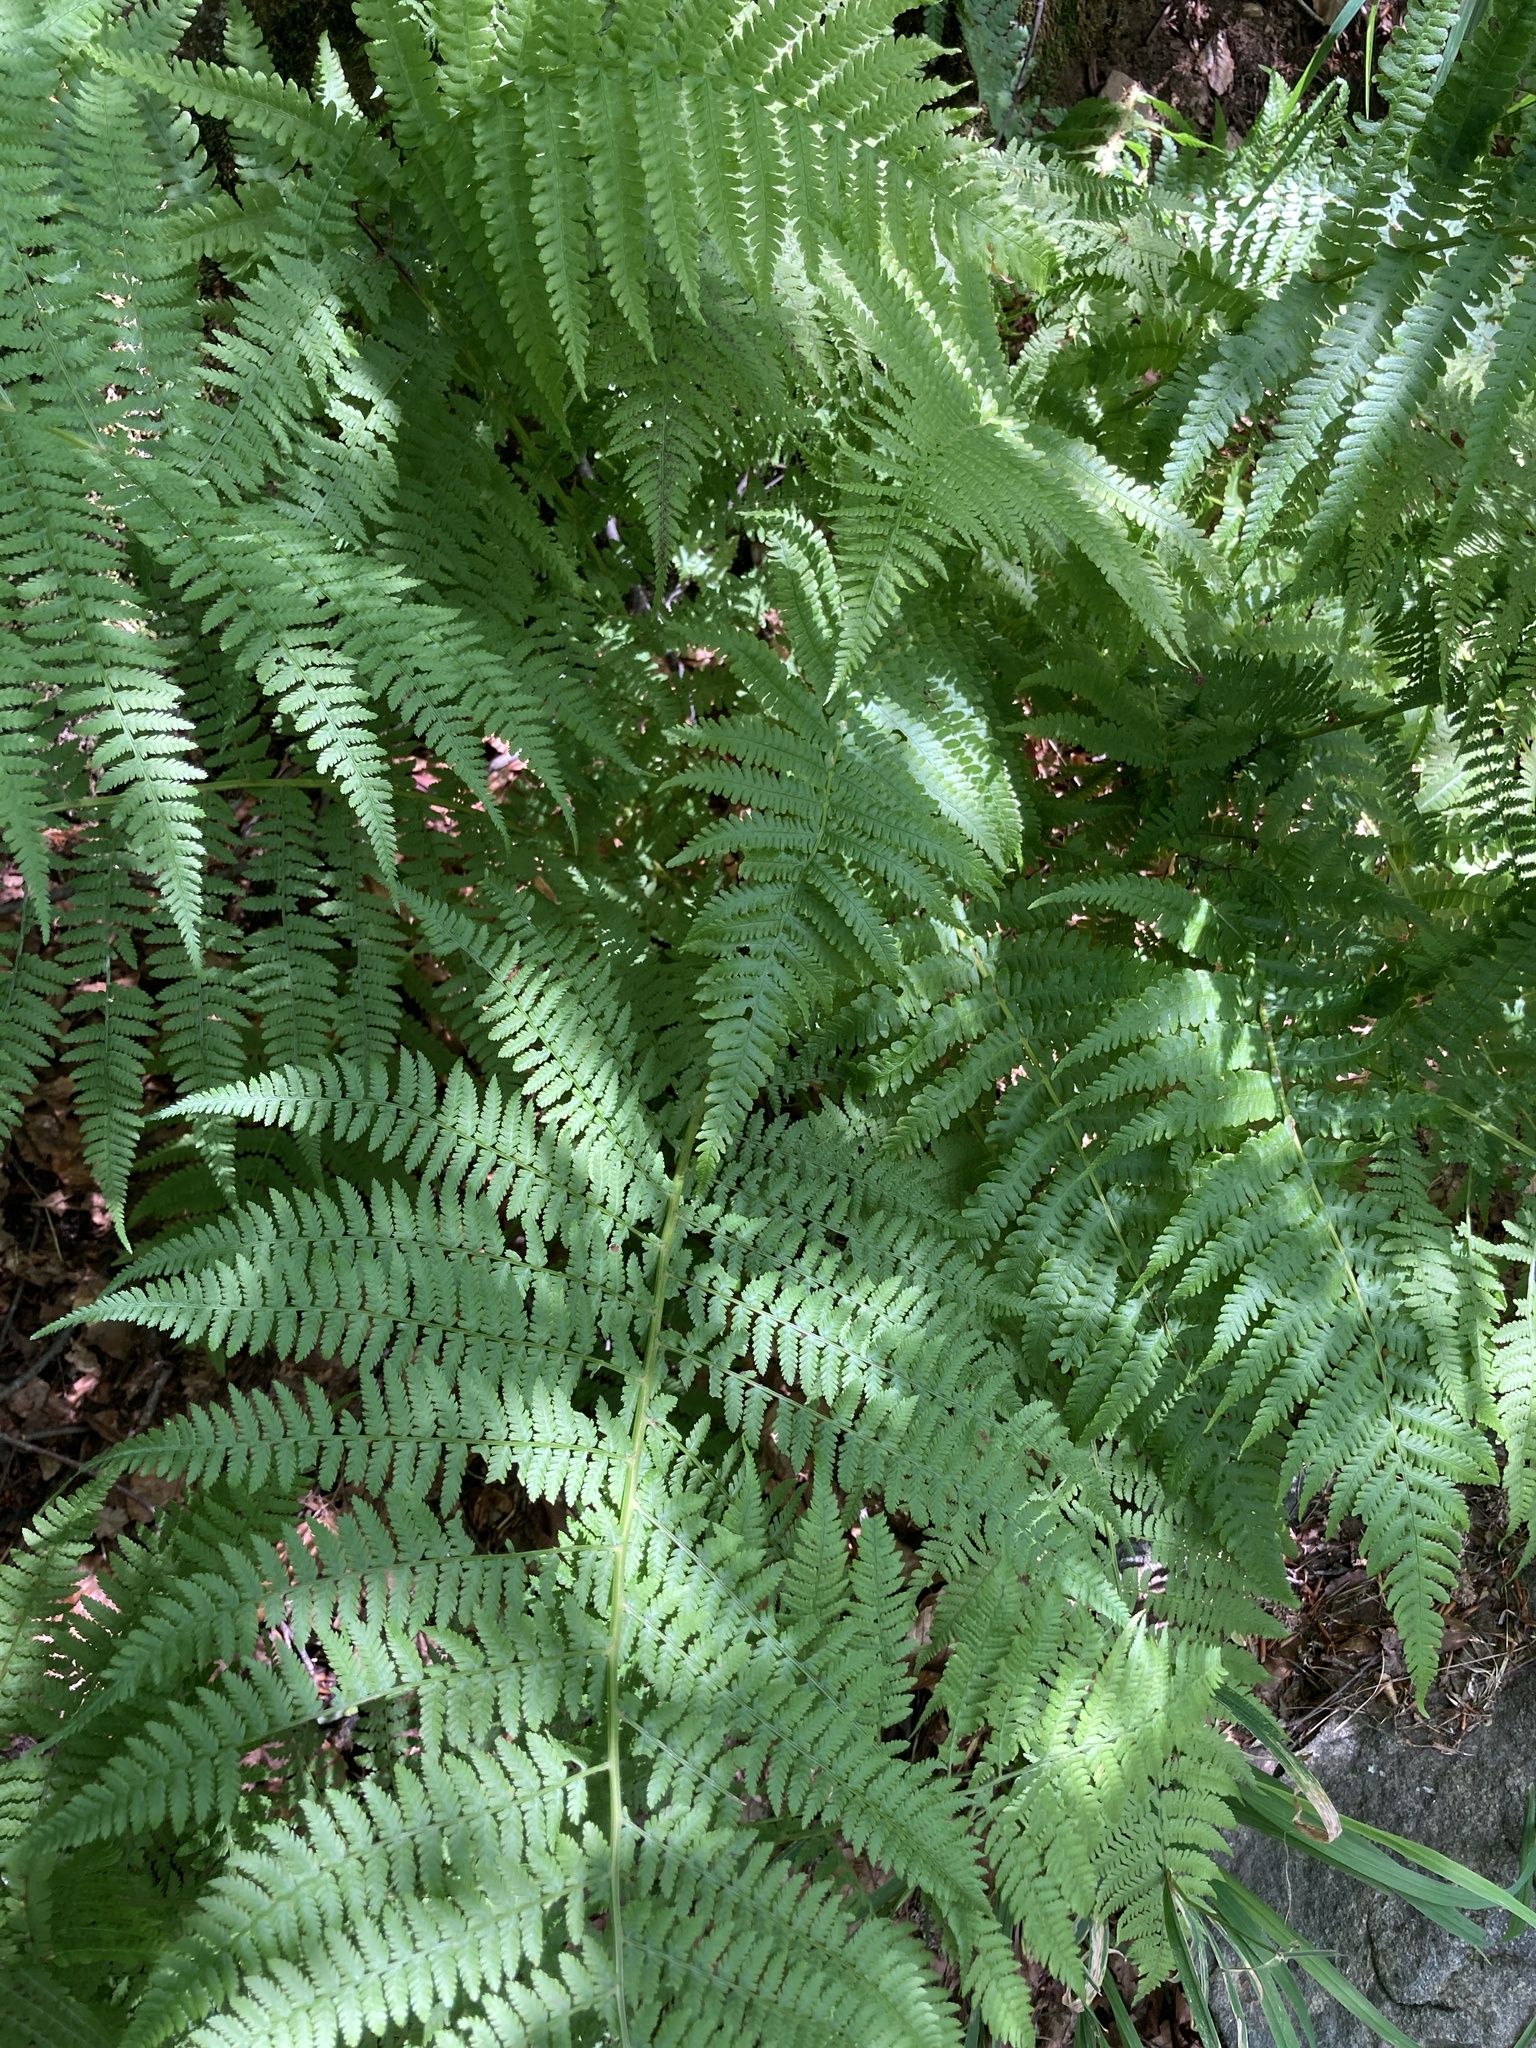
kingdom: Plantae
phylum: Tracheophyta
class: Polypodiopsida
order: Polypodiales
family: Athyriaceae
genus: Athyrium
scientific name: Athyrium filix-femina
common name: Lady fern
